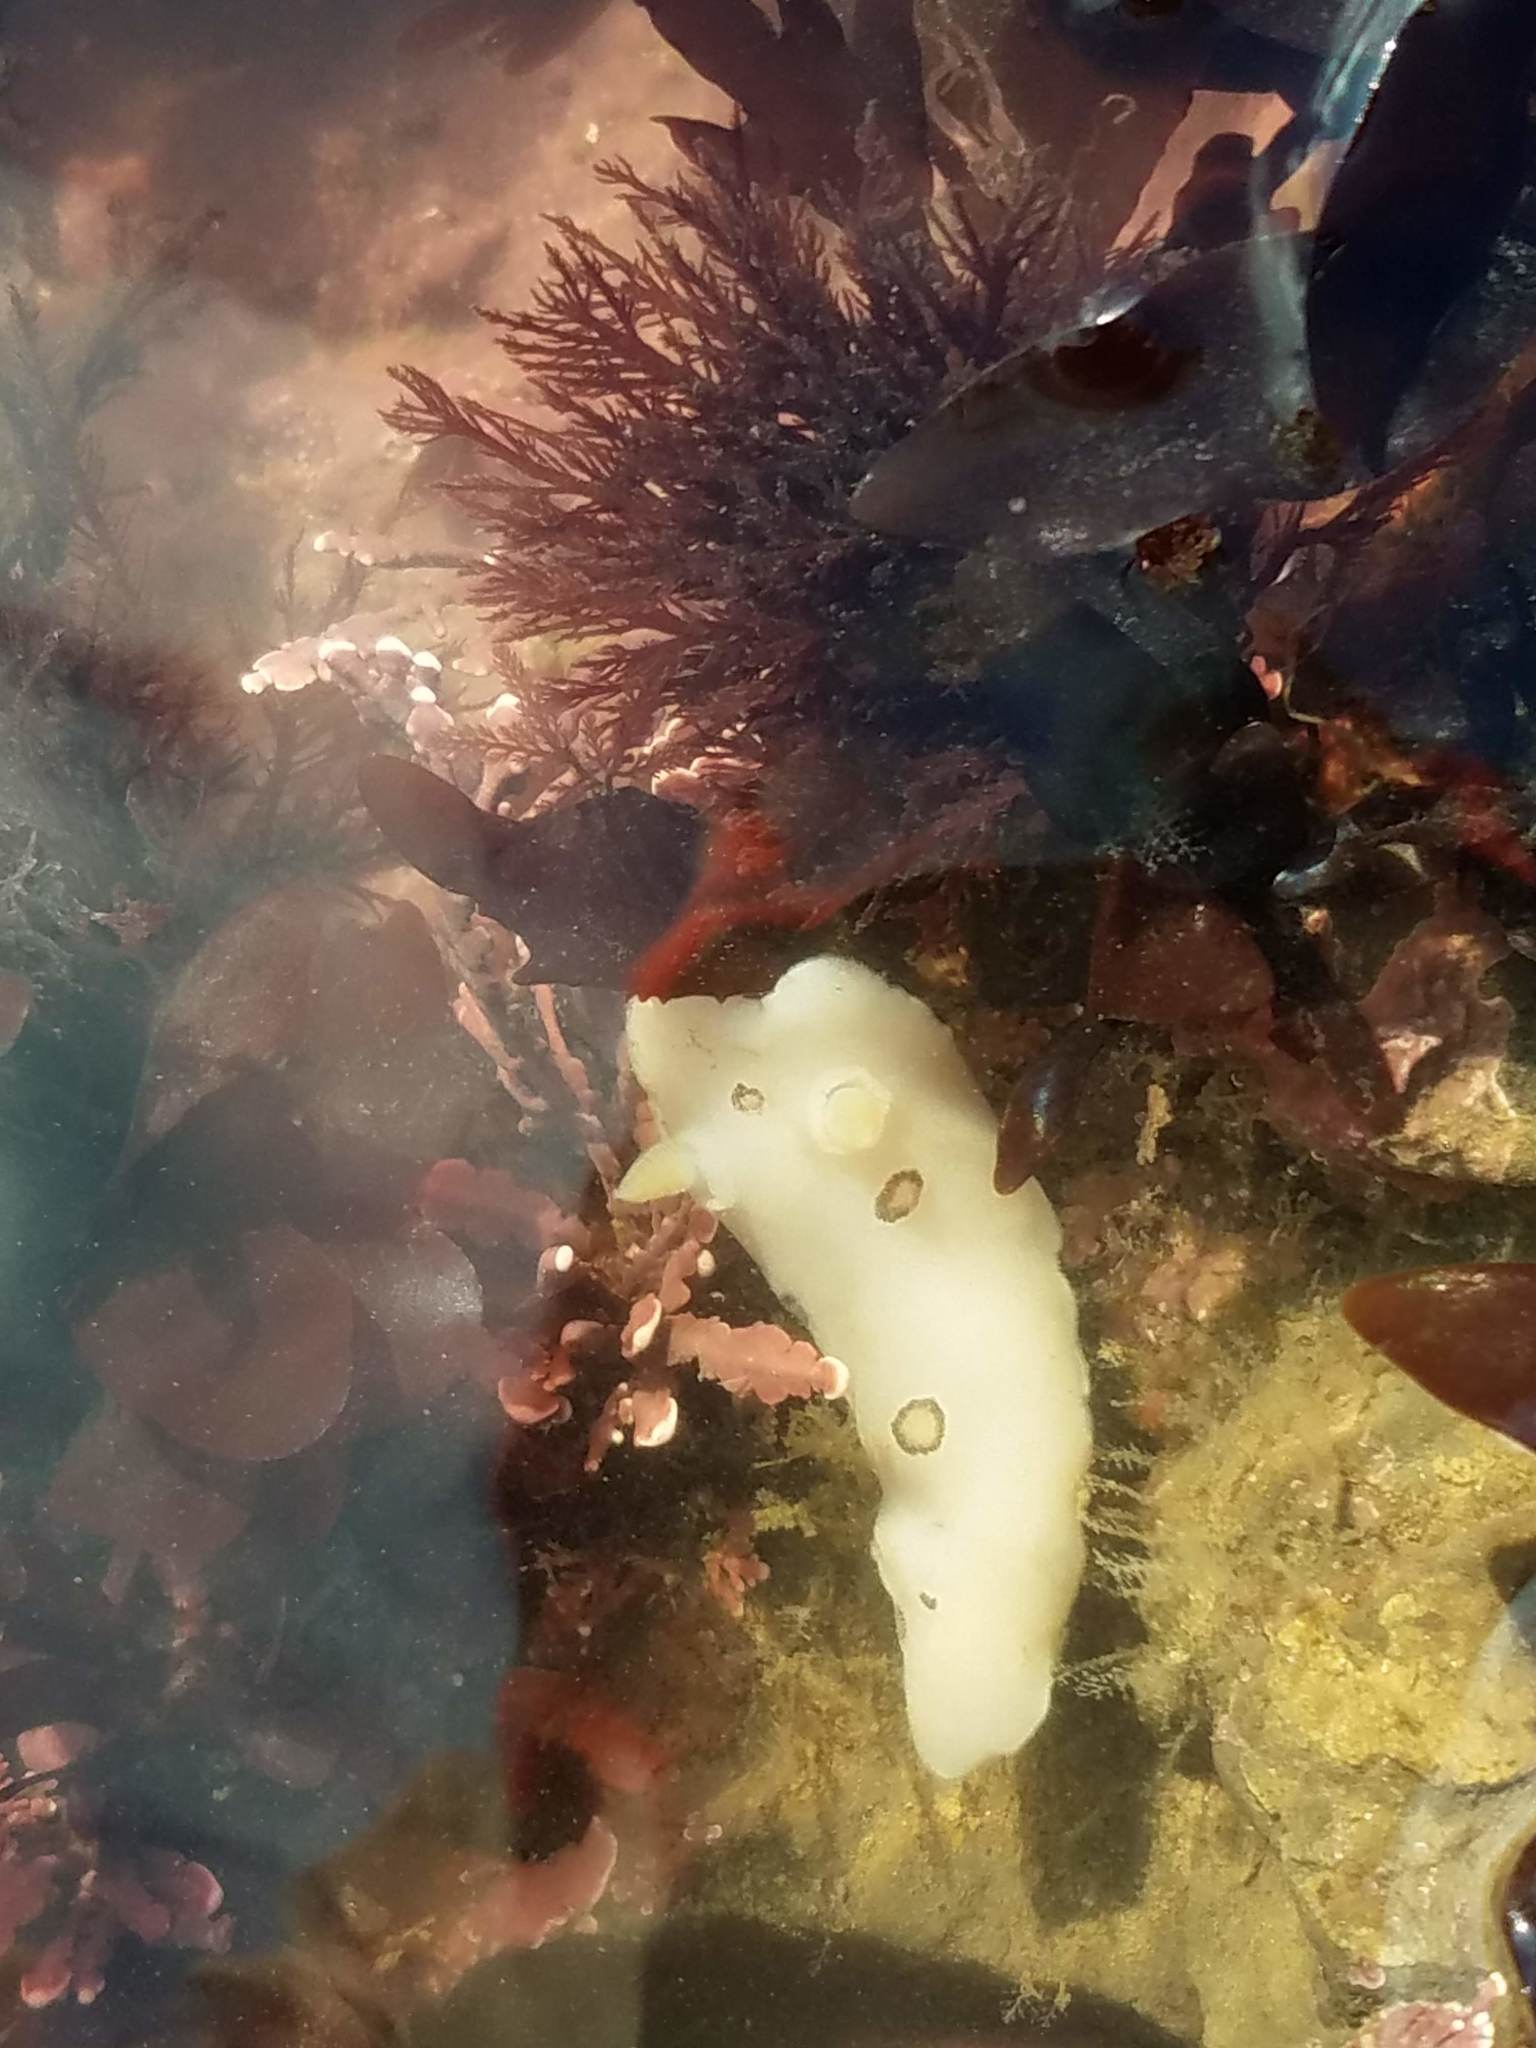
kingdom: Animalia
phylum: Mollusca
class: Gastropoda
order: Nudibranchia
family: Discodorididae
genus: Diaulula
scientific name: Diaulula sandiegensis
